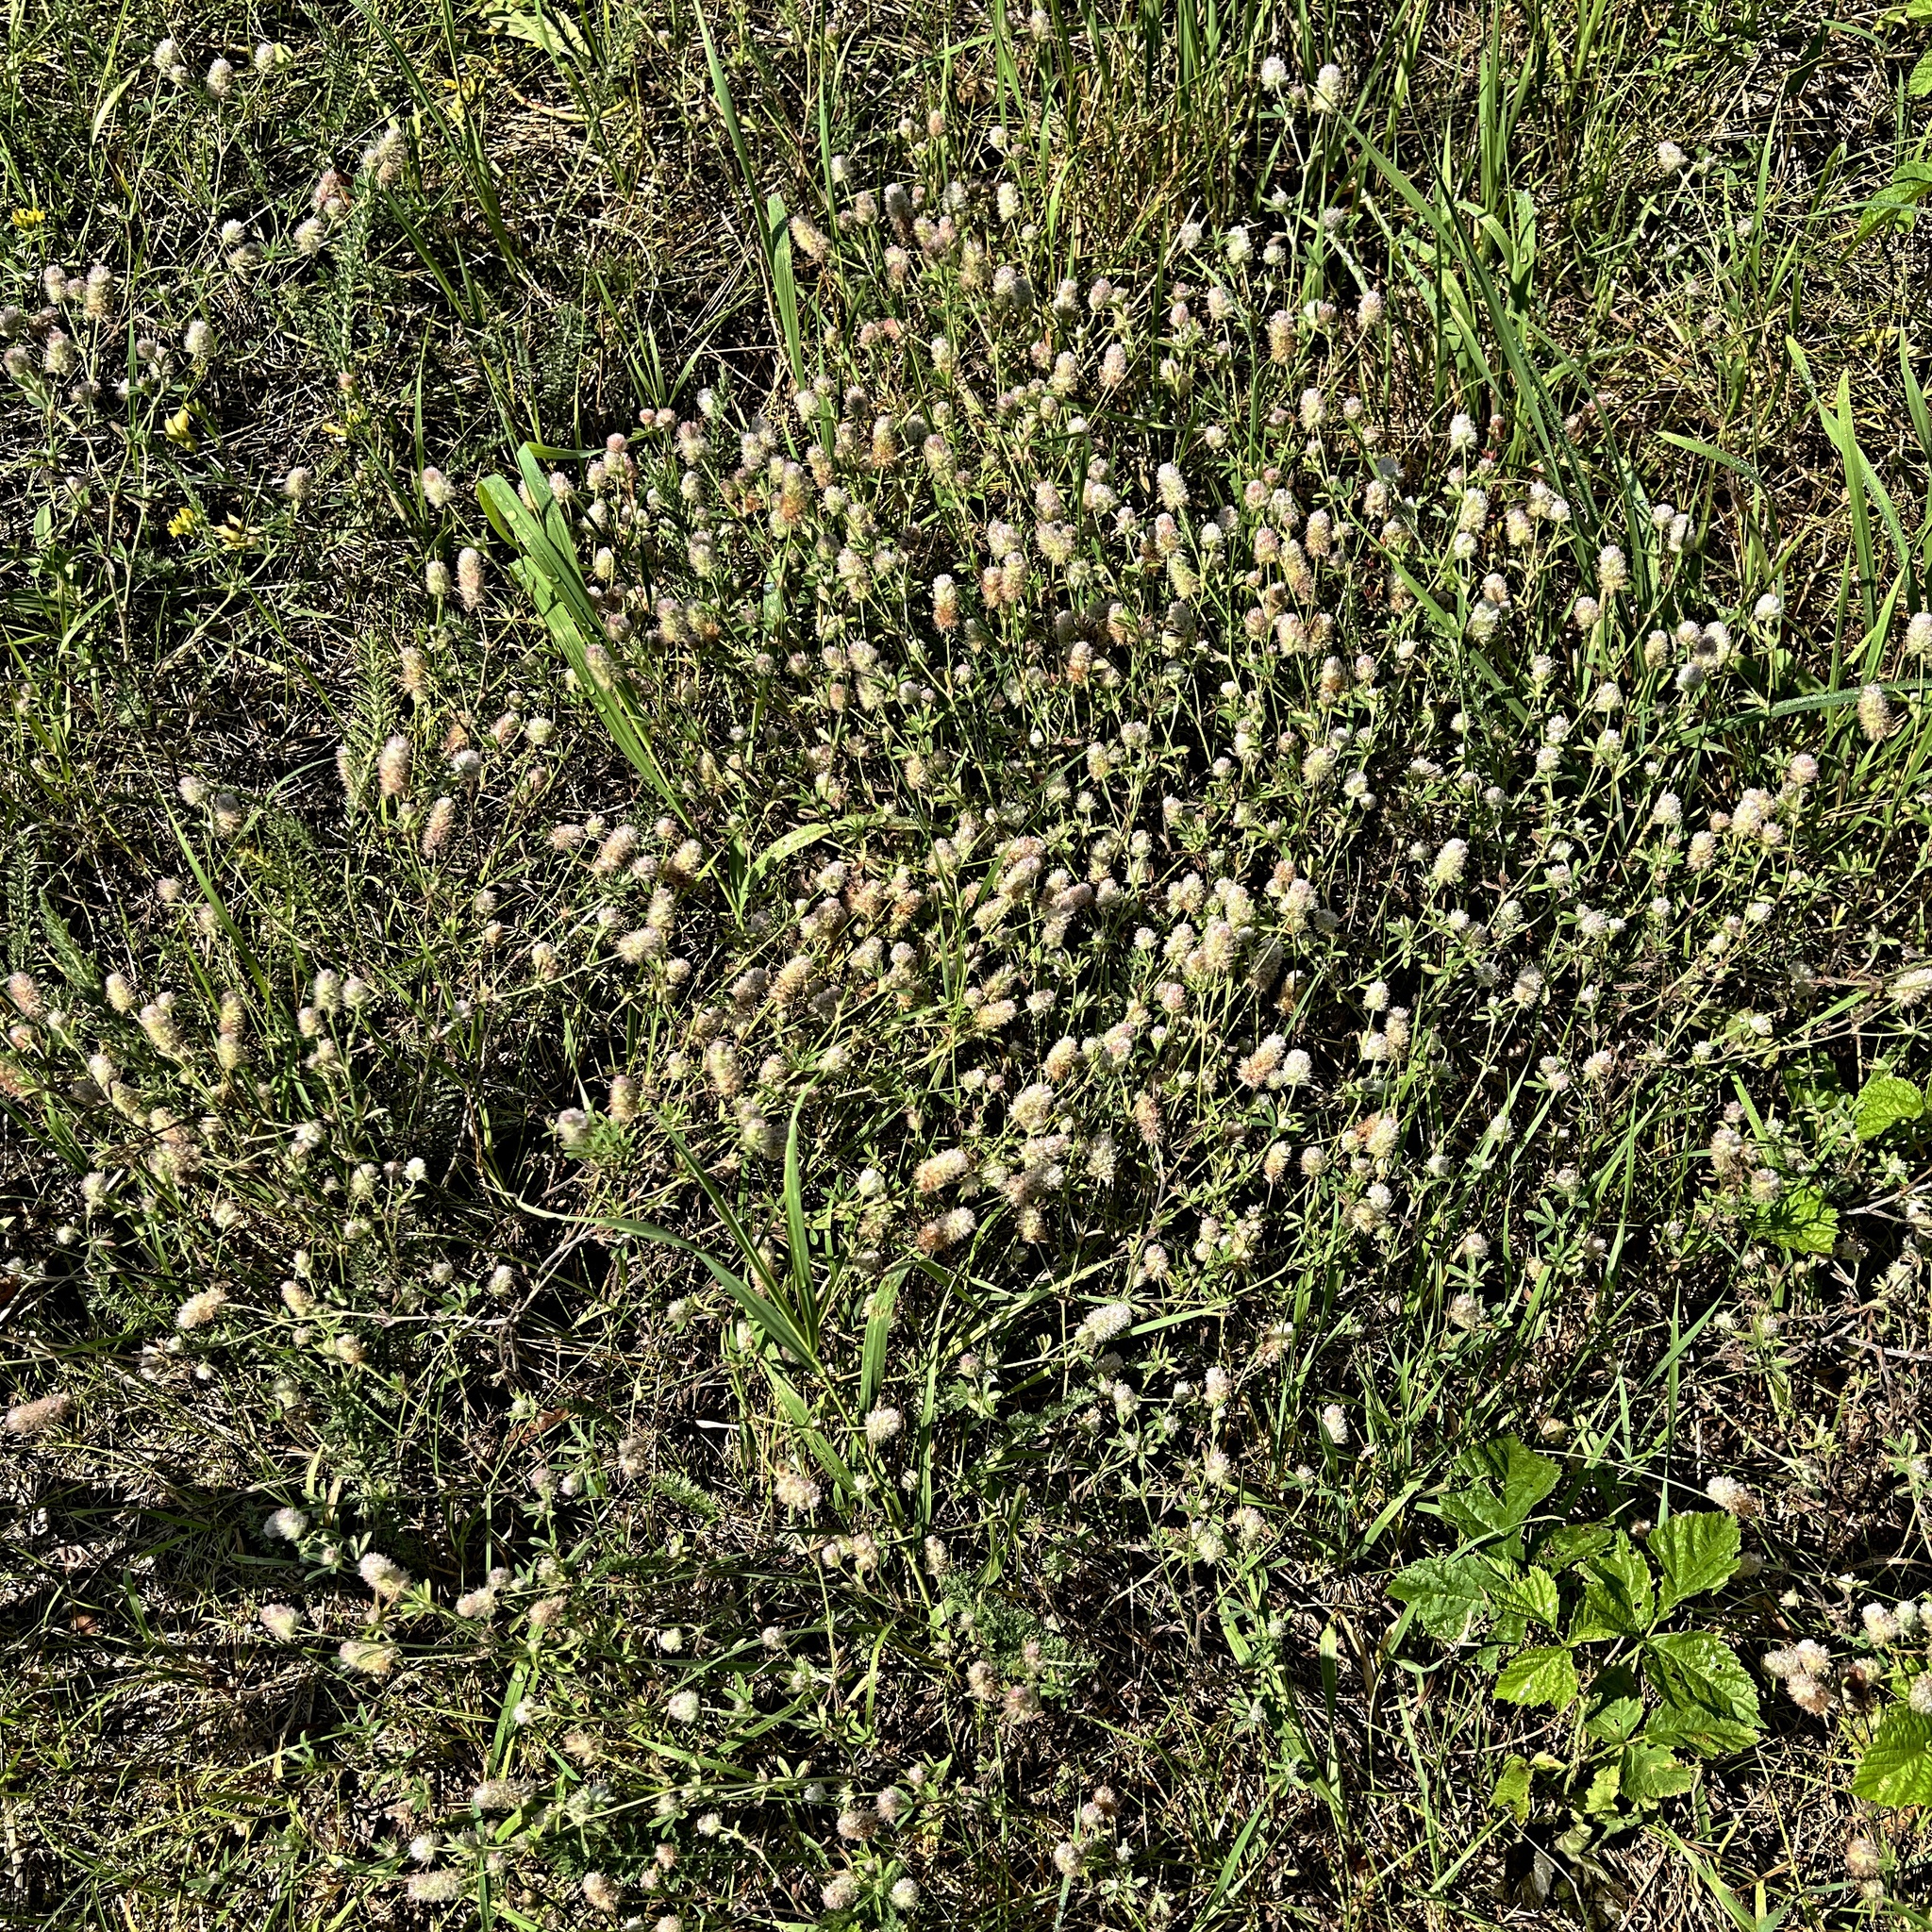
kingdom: Plantae
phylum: Tracheophyta
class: Magnoliopsida
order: Fabales
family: Fabaceae
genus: Trifolium
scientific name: Trifolium arvense
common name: Hare's-foot clover
